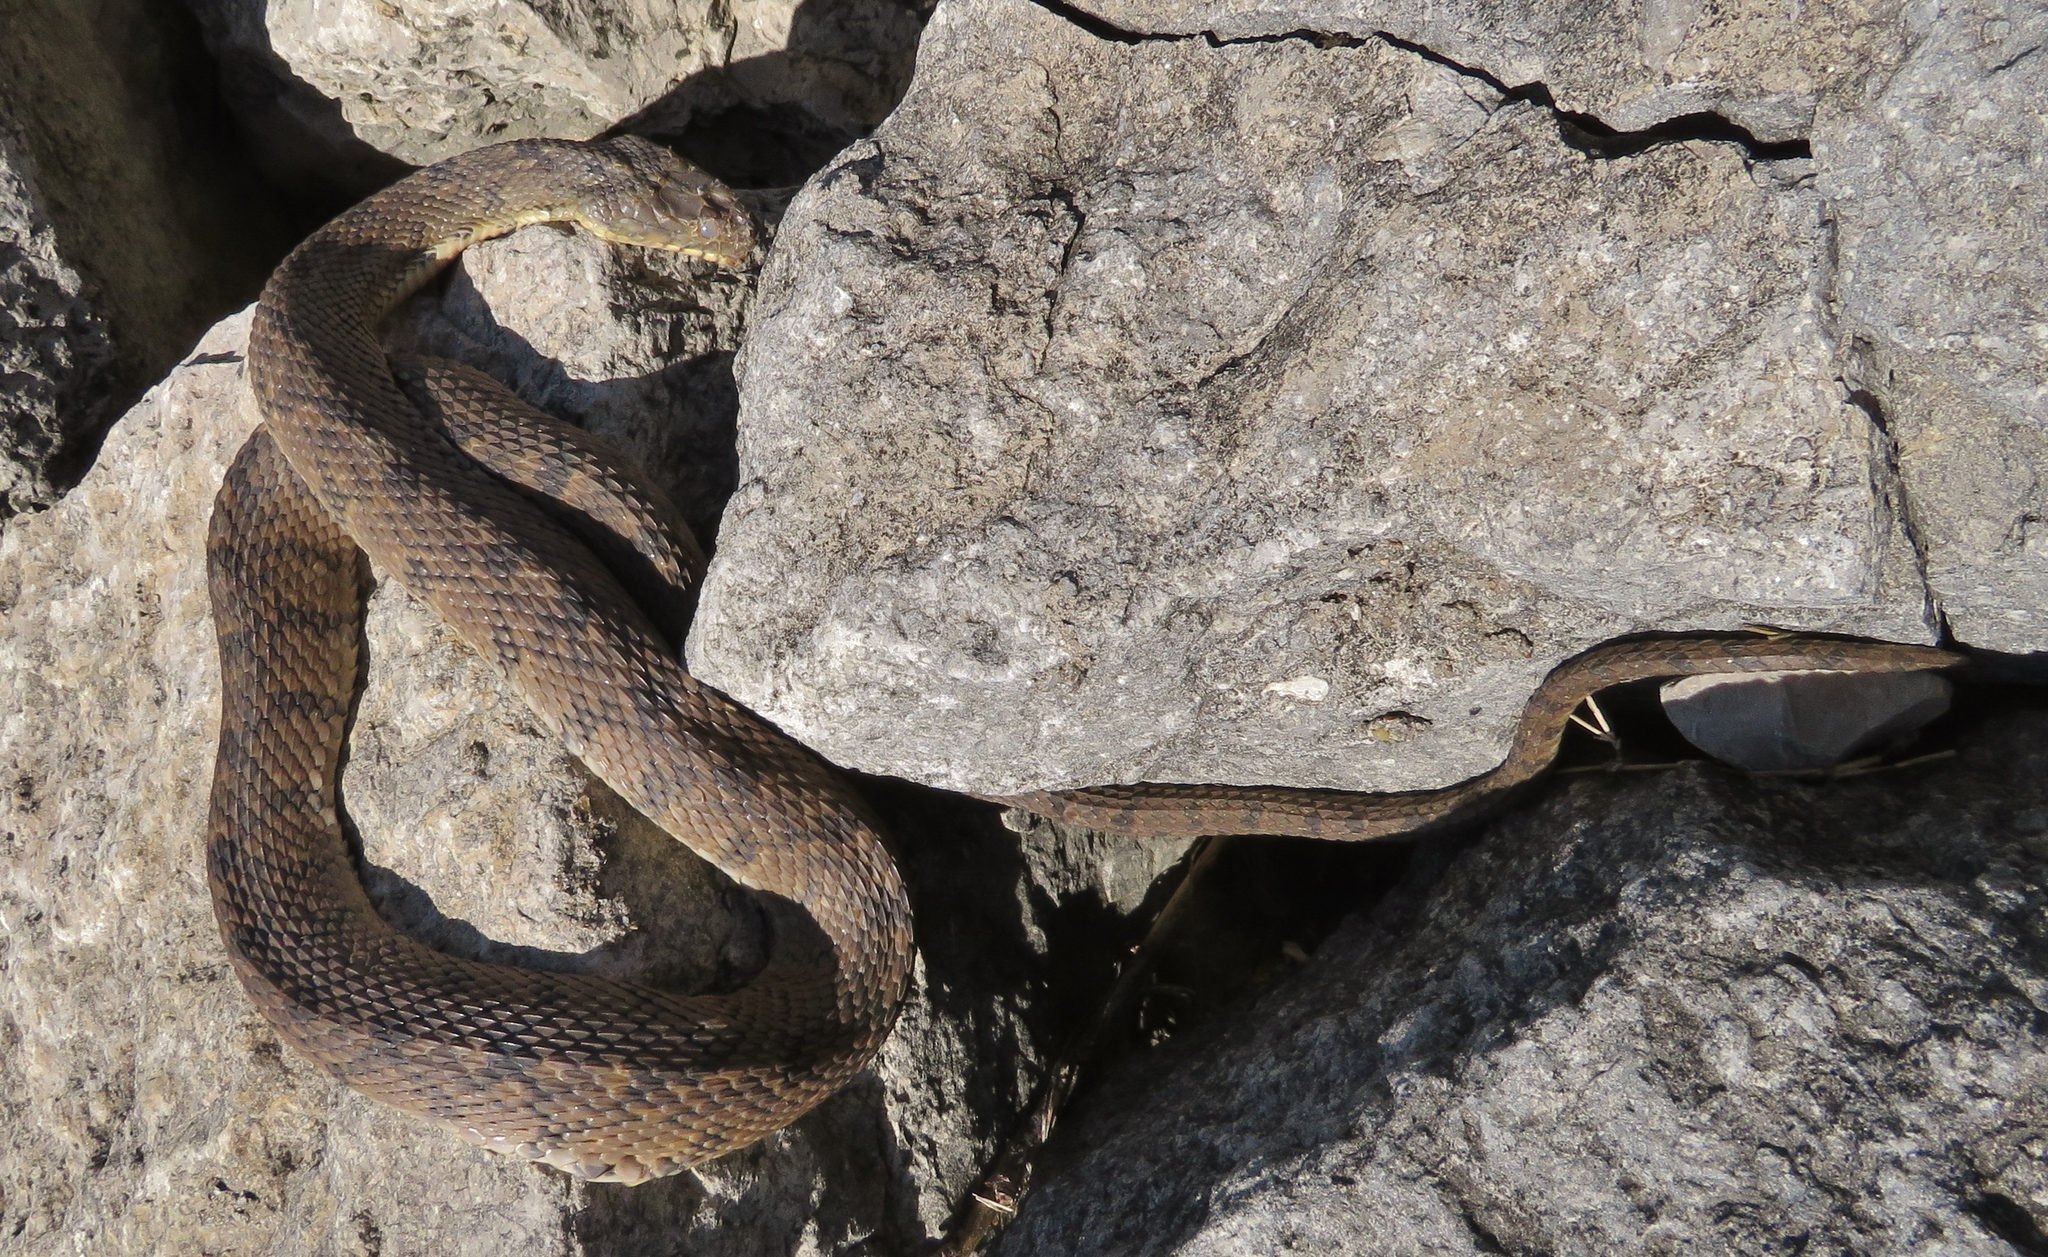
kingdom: Animalia
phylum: Chordata
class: Squamata
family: Colubridae
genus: Nerodia
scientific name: Nerodia rhombifer
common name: Diamondback water snake
